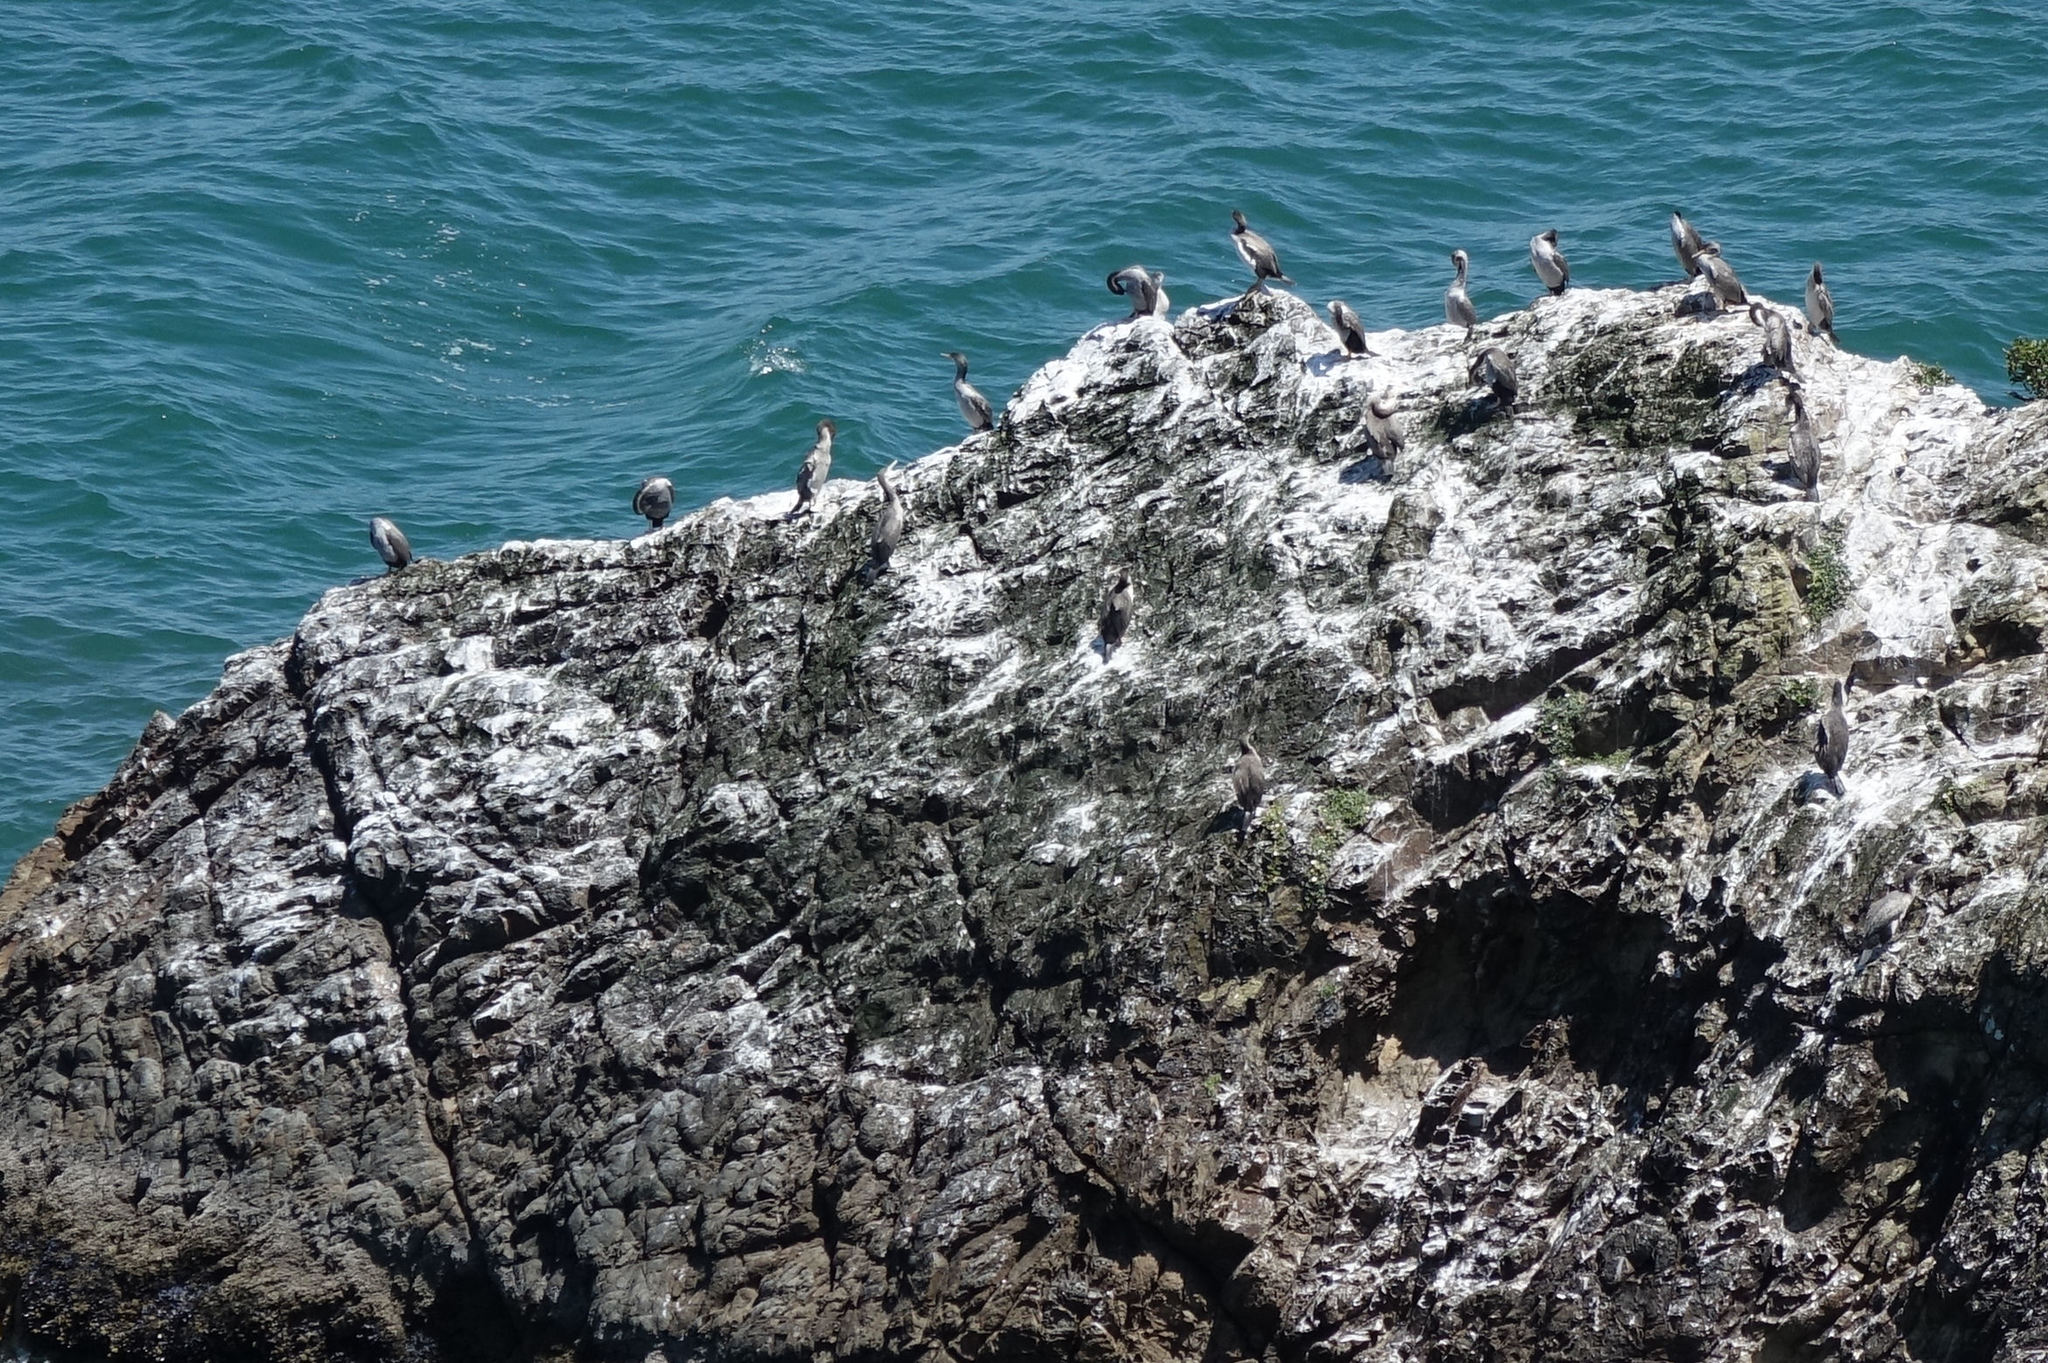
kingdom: Animalia
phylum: Chordata
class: Aves
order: Suliformes
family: Phalacrocoracidae
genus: Phalacrocorax
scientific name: Phalacrocorax punctatus
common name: Spotted shag
